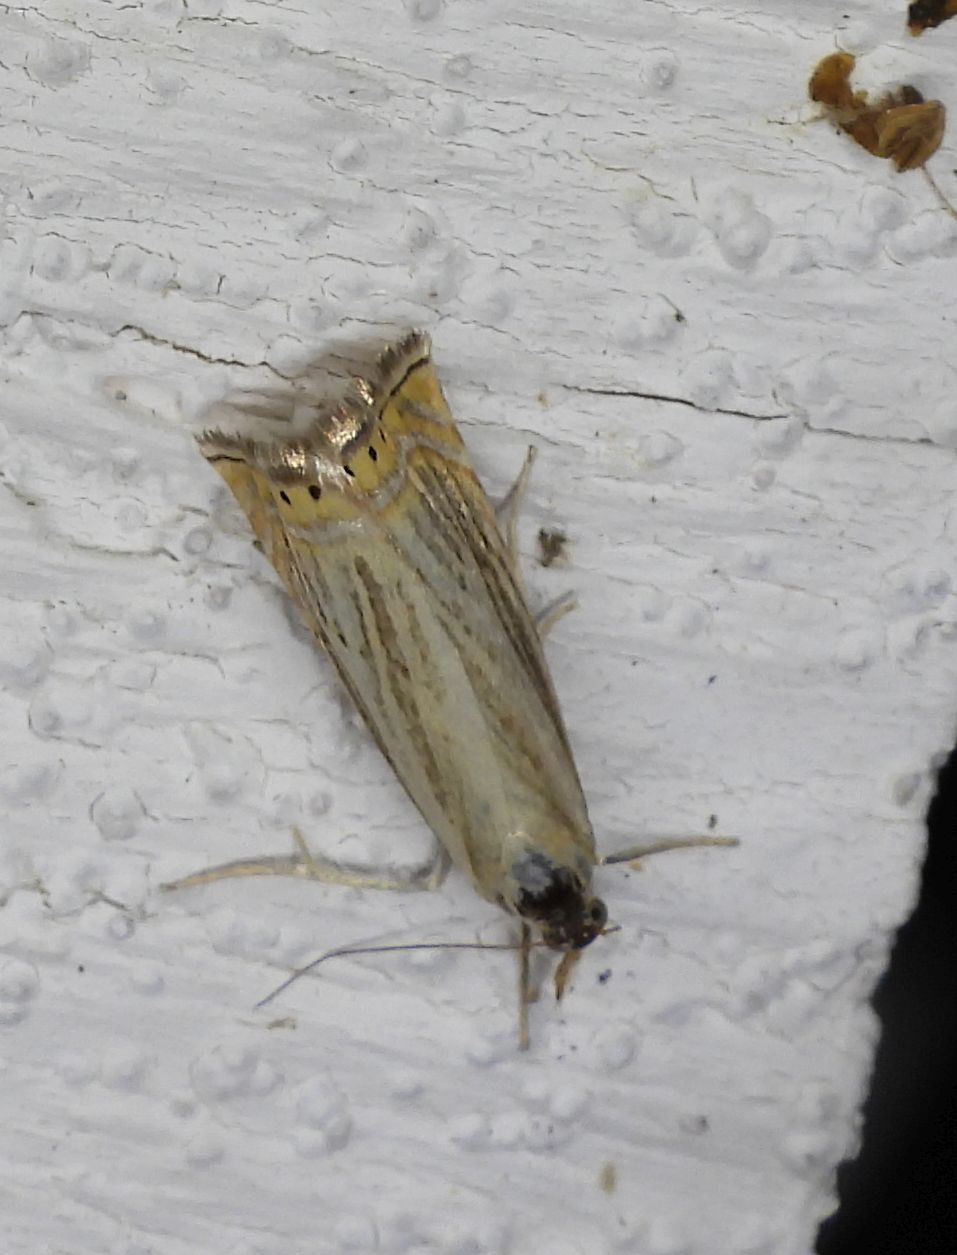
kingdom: Animalia
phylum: Arthropoda
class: Insecta
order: Lepidoptera
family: Crambidae
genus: Chrysoteuchia
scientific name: Chrysoteuchia topiarius
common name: Topiary grass-veneer
